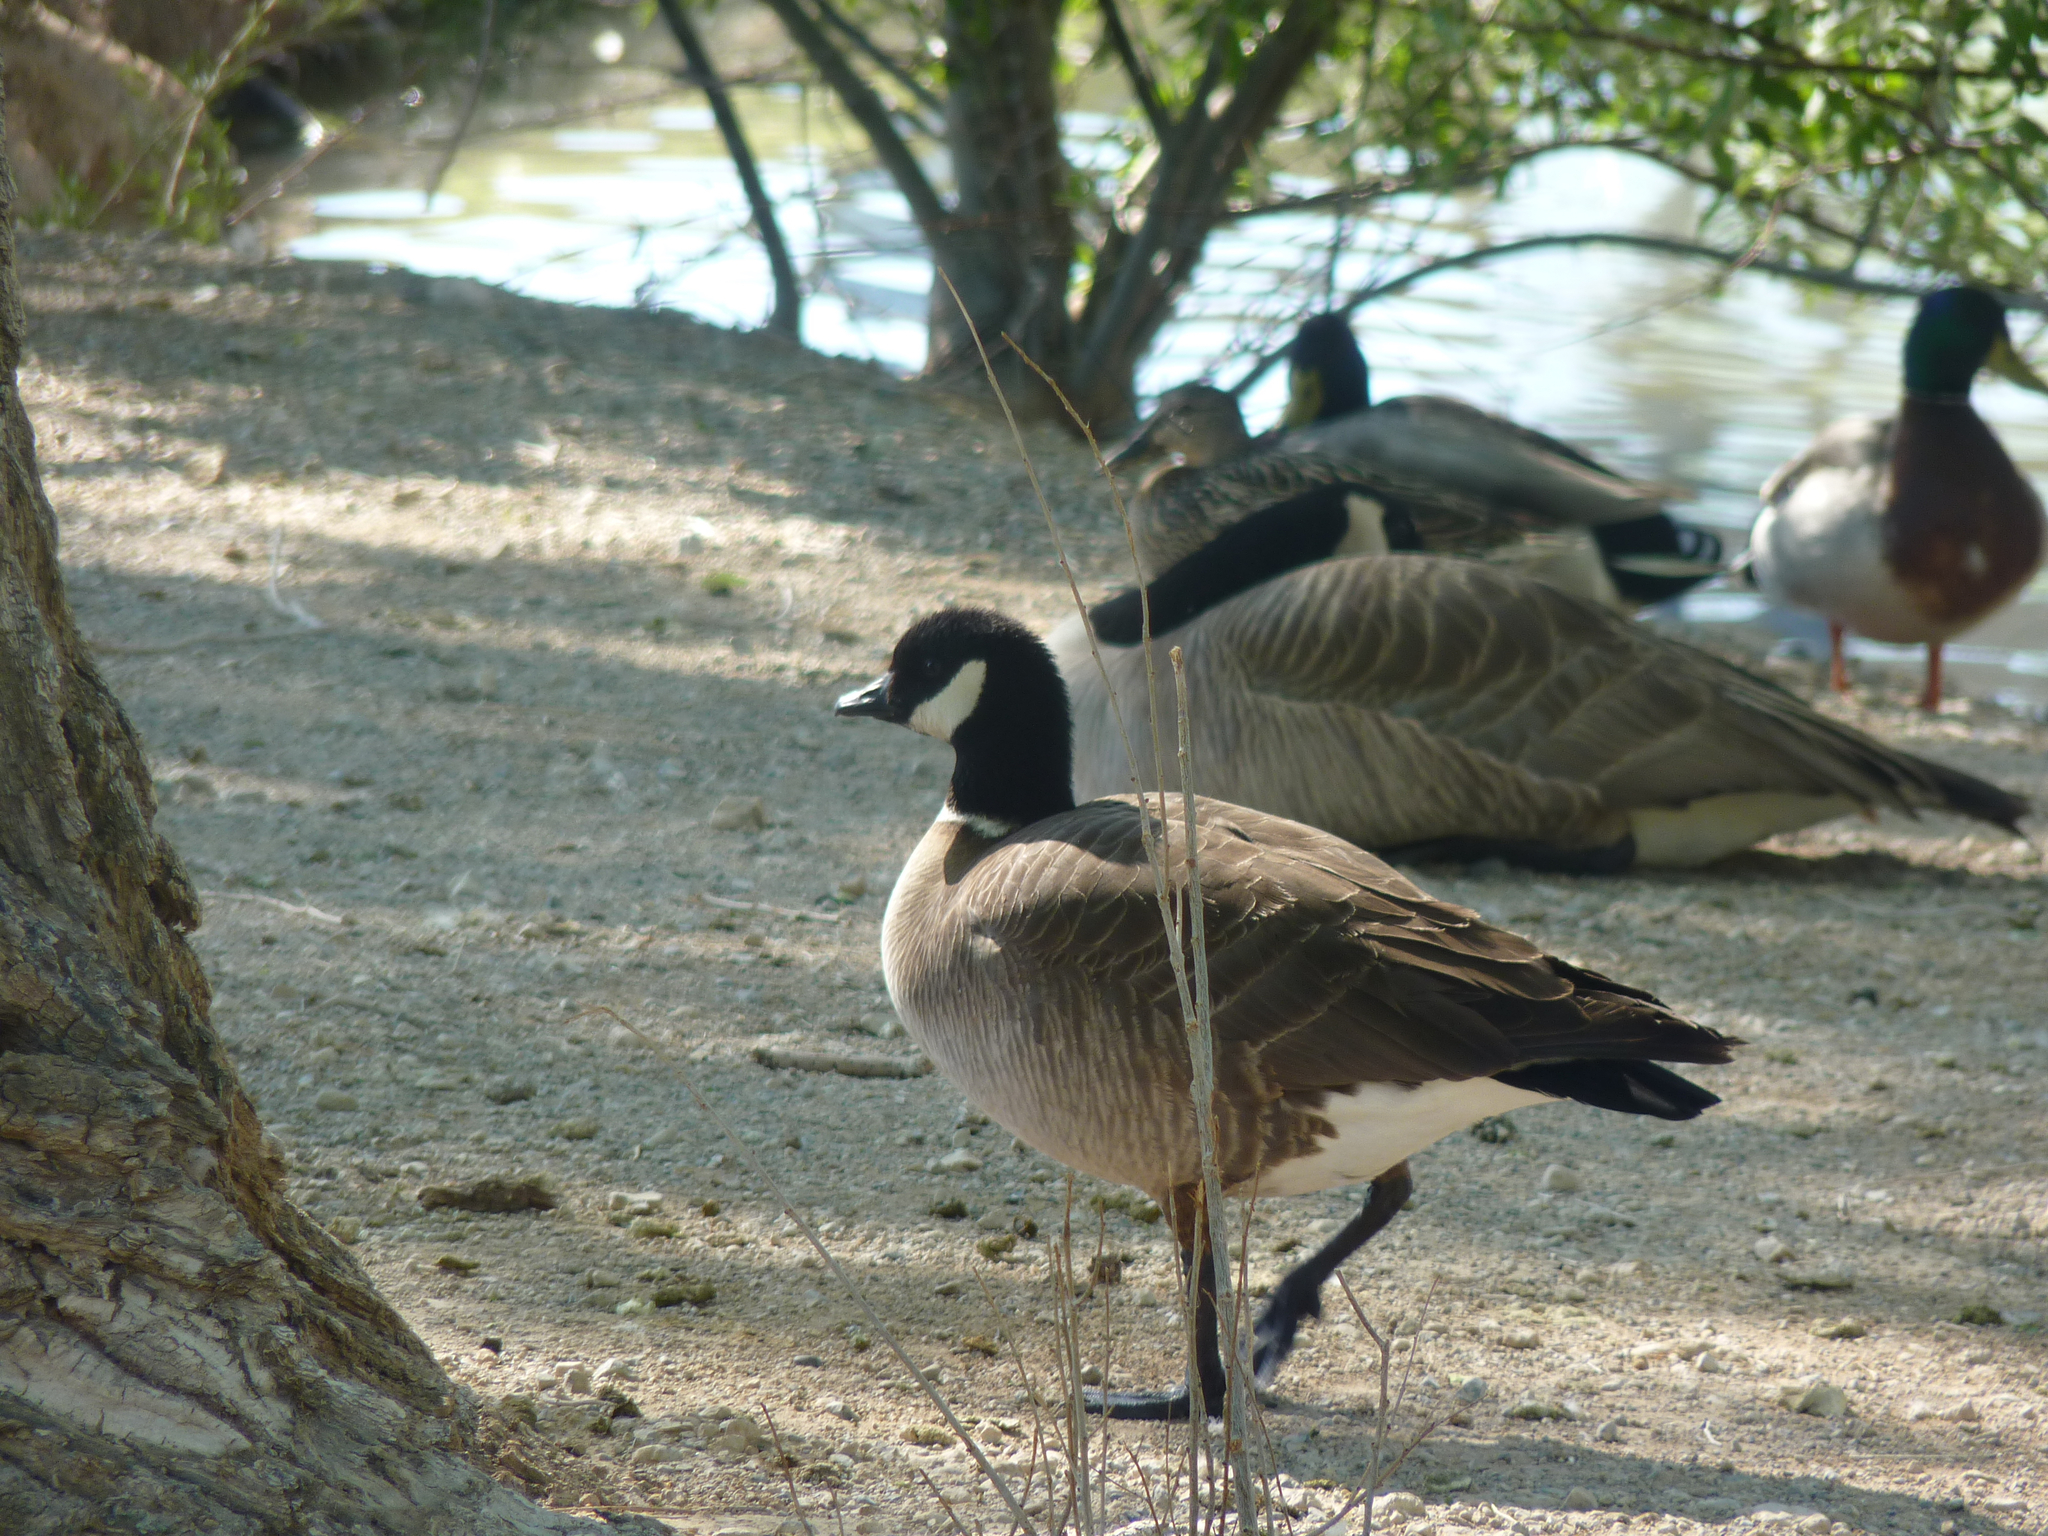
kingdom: Animalia
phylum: Chordata
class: Aves
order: Anseriformes
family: Anatidae
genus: Branta
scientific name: Branta hutchinsii
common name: Cackling goose
